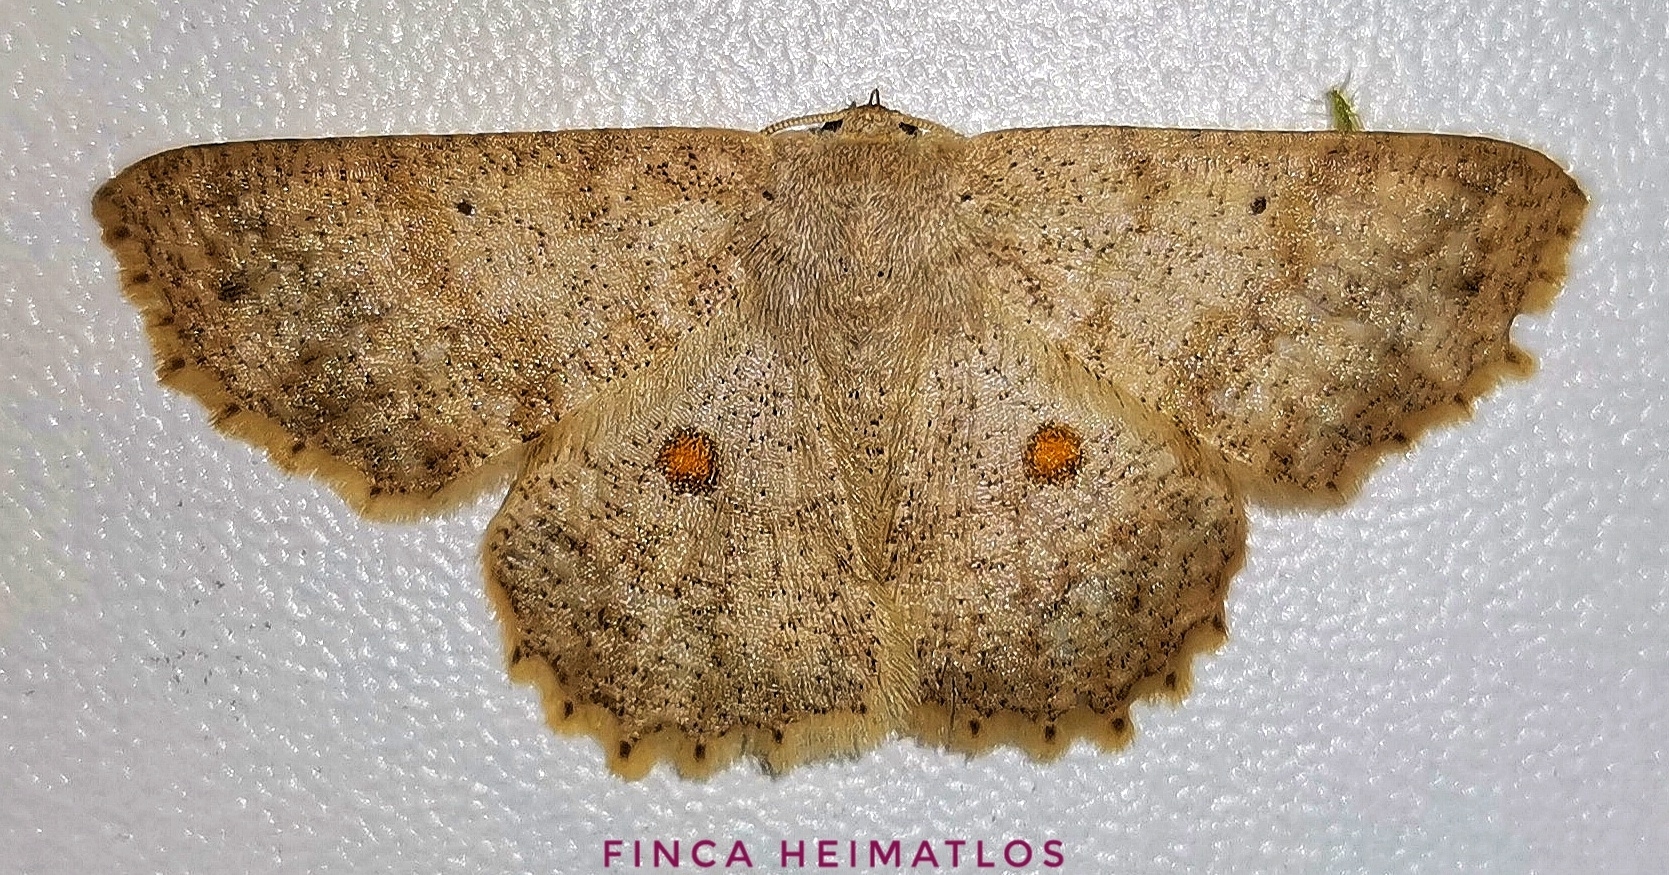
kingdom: Animalia
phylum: Arthropoda
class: Insecta
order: Lepidoptera
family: Geometridae
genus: Isochromodes
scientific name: Isochromodes epioneata
